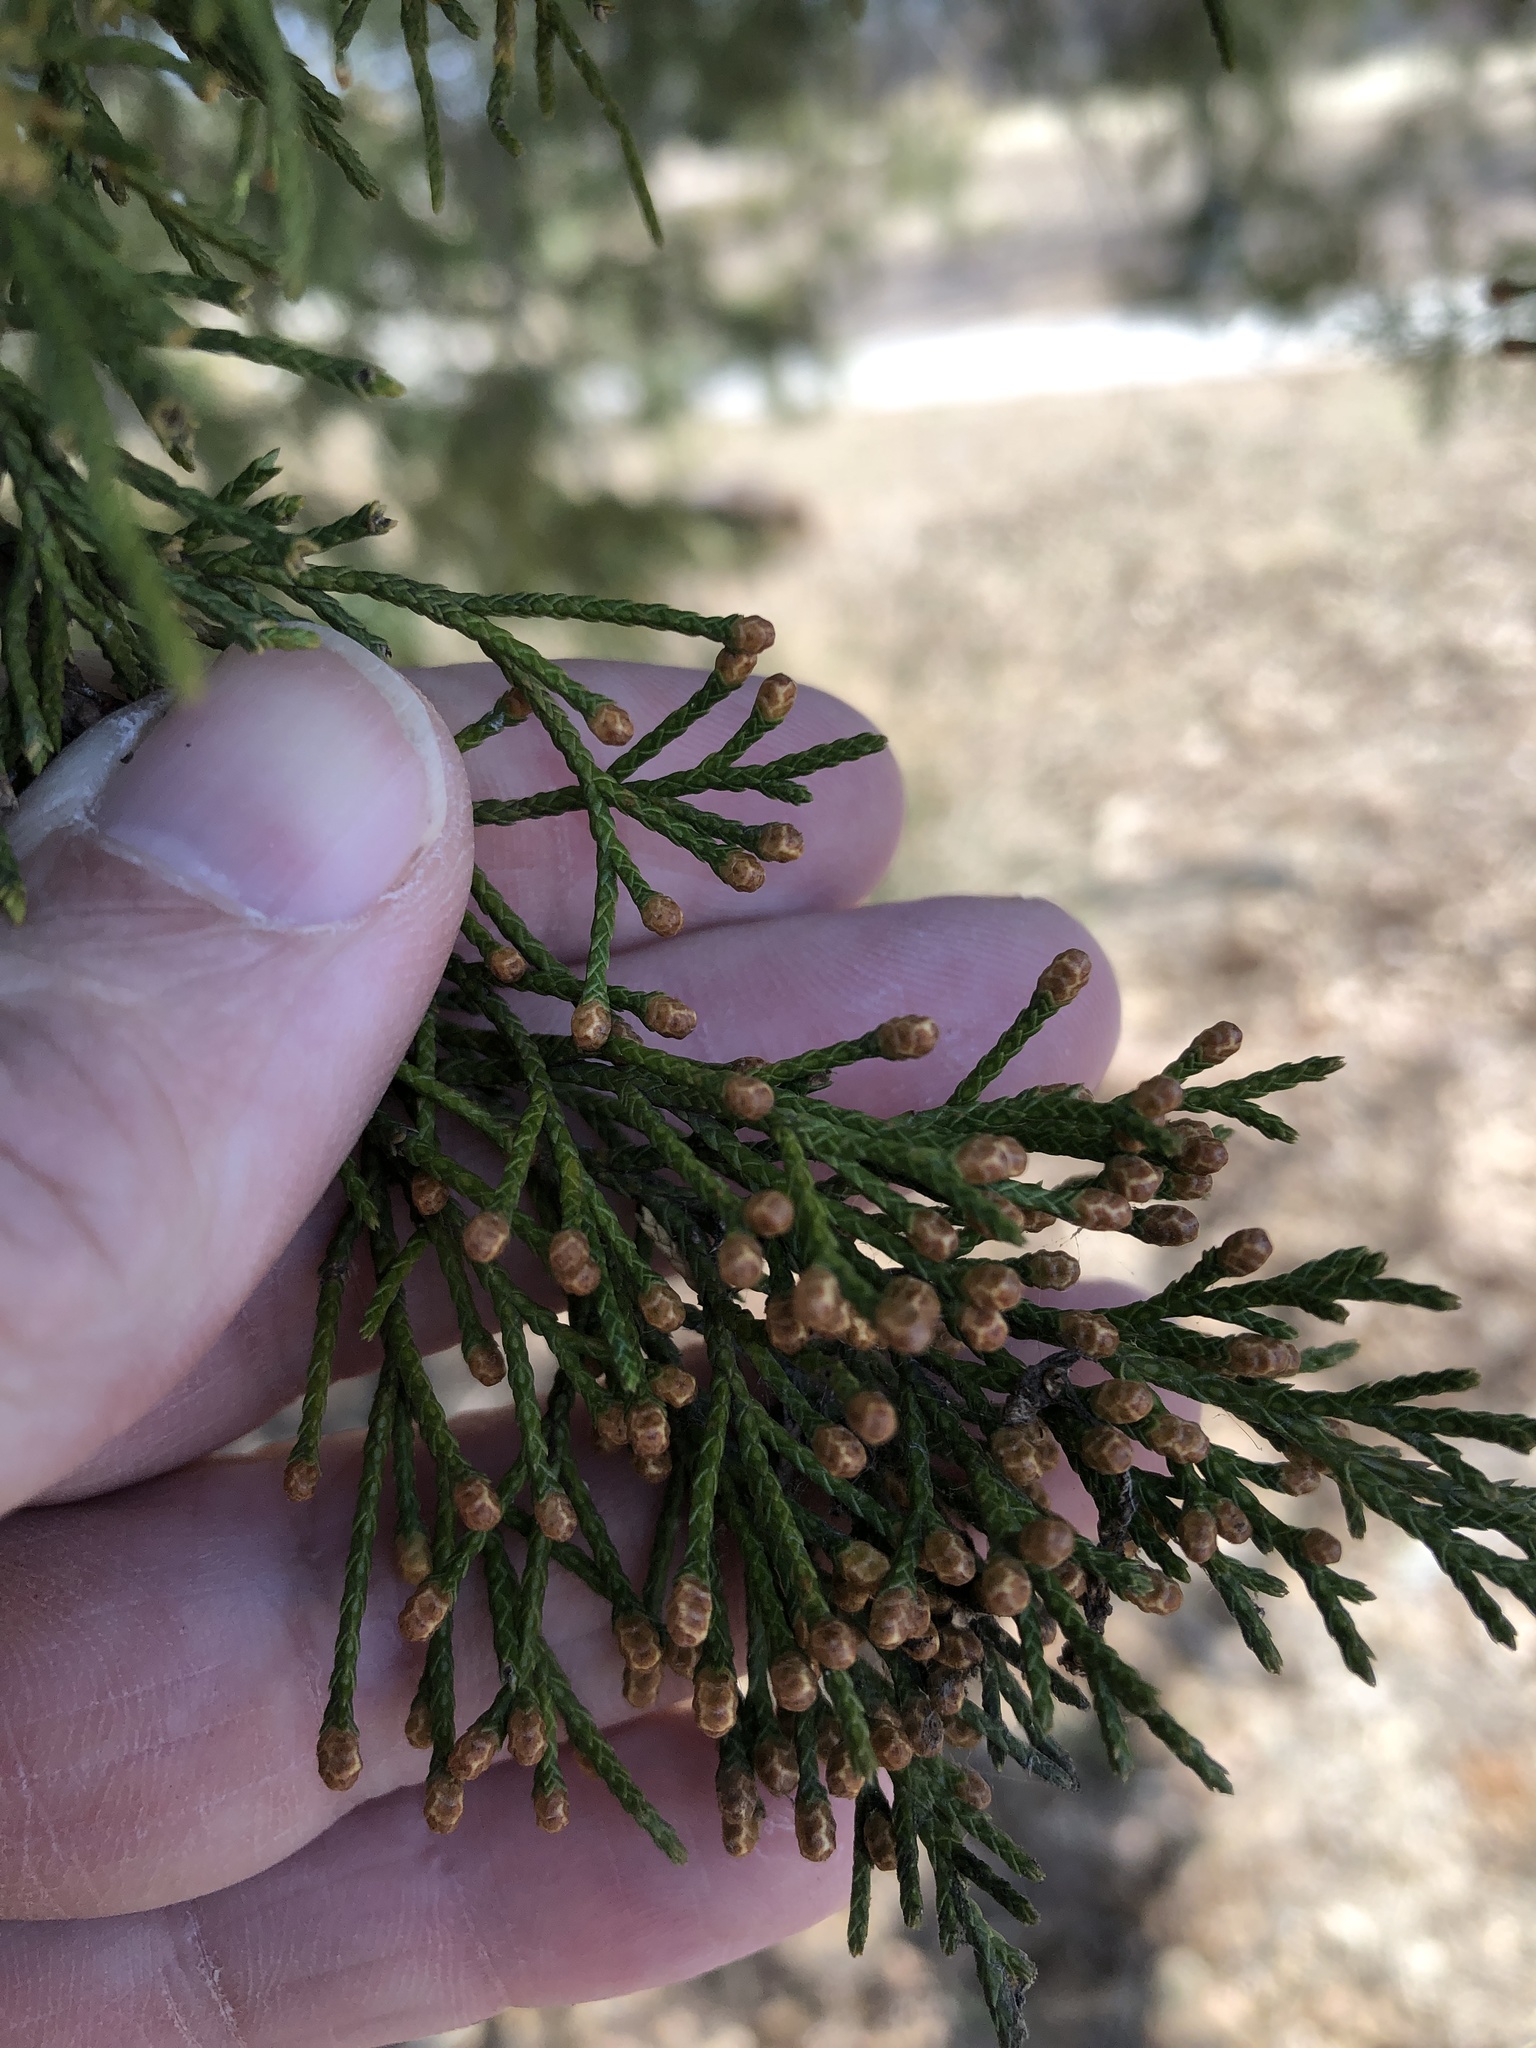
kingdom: Plantae
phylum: Tracheophyta
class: Pinopsida
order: Pinales
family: Cupressaceae
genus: Juniperus
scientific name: Juniperus virginiana
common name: Red juniper
